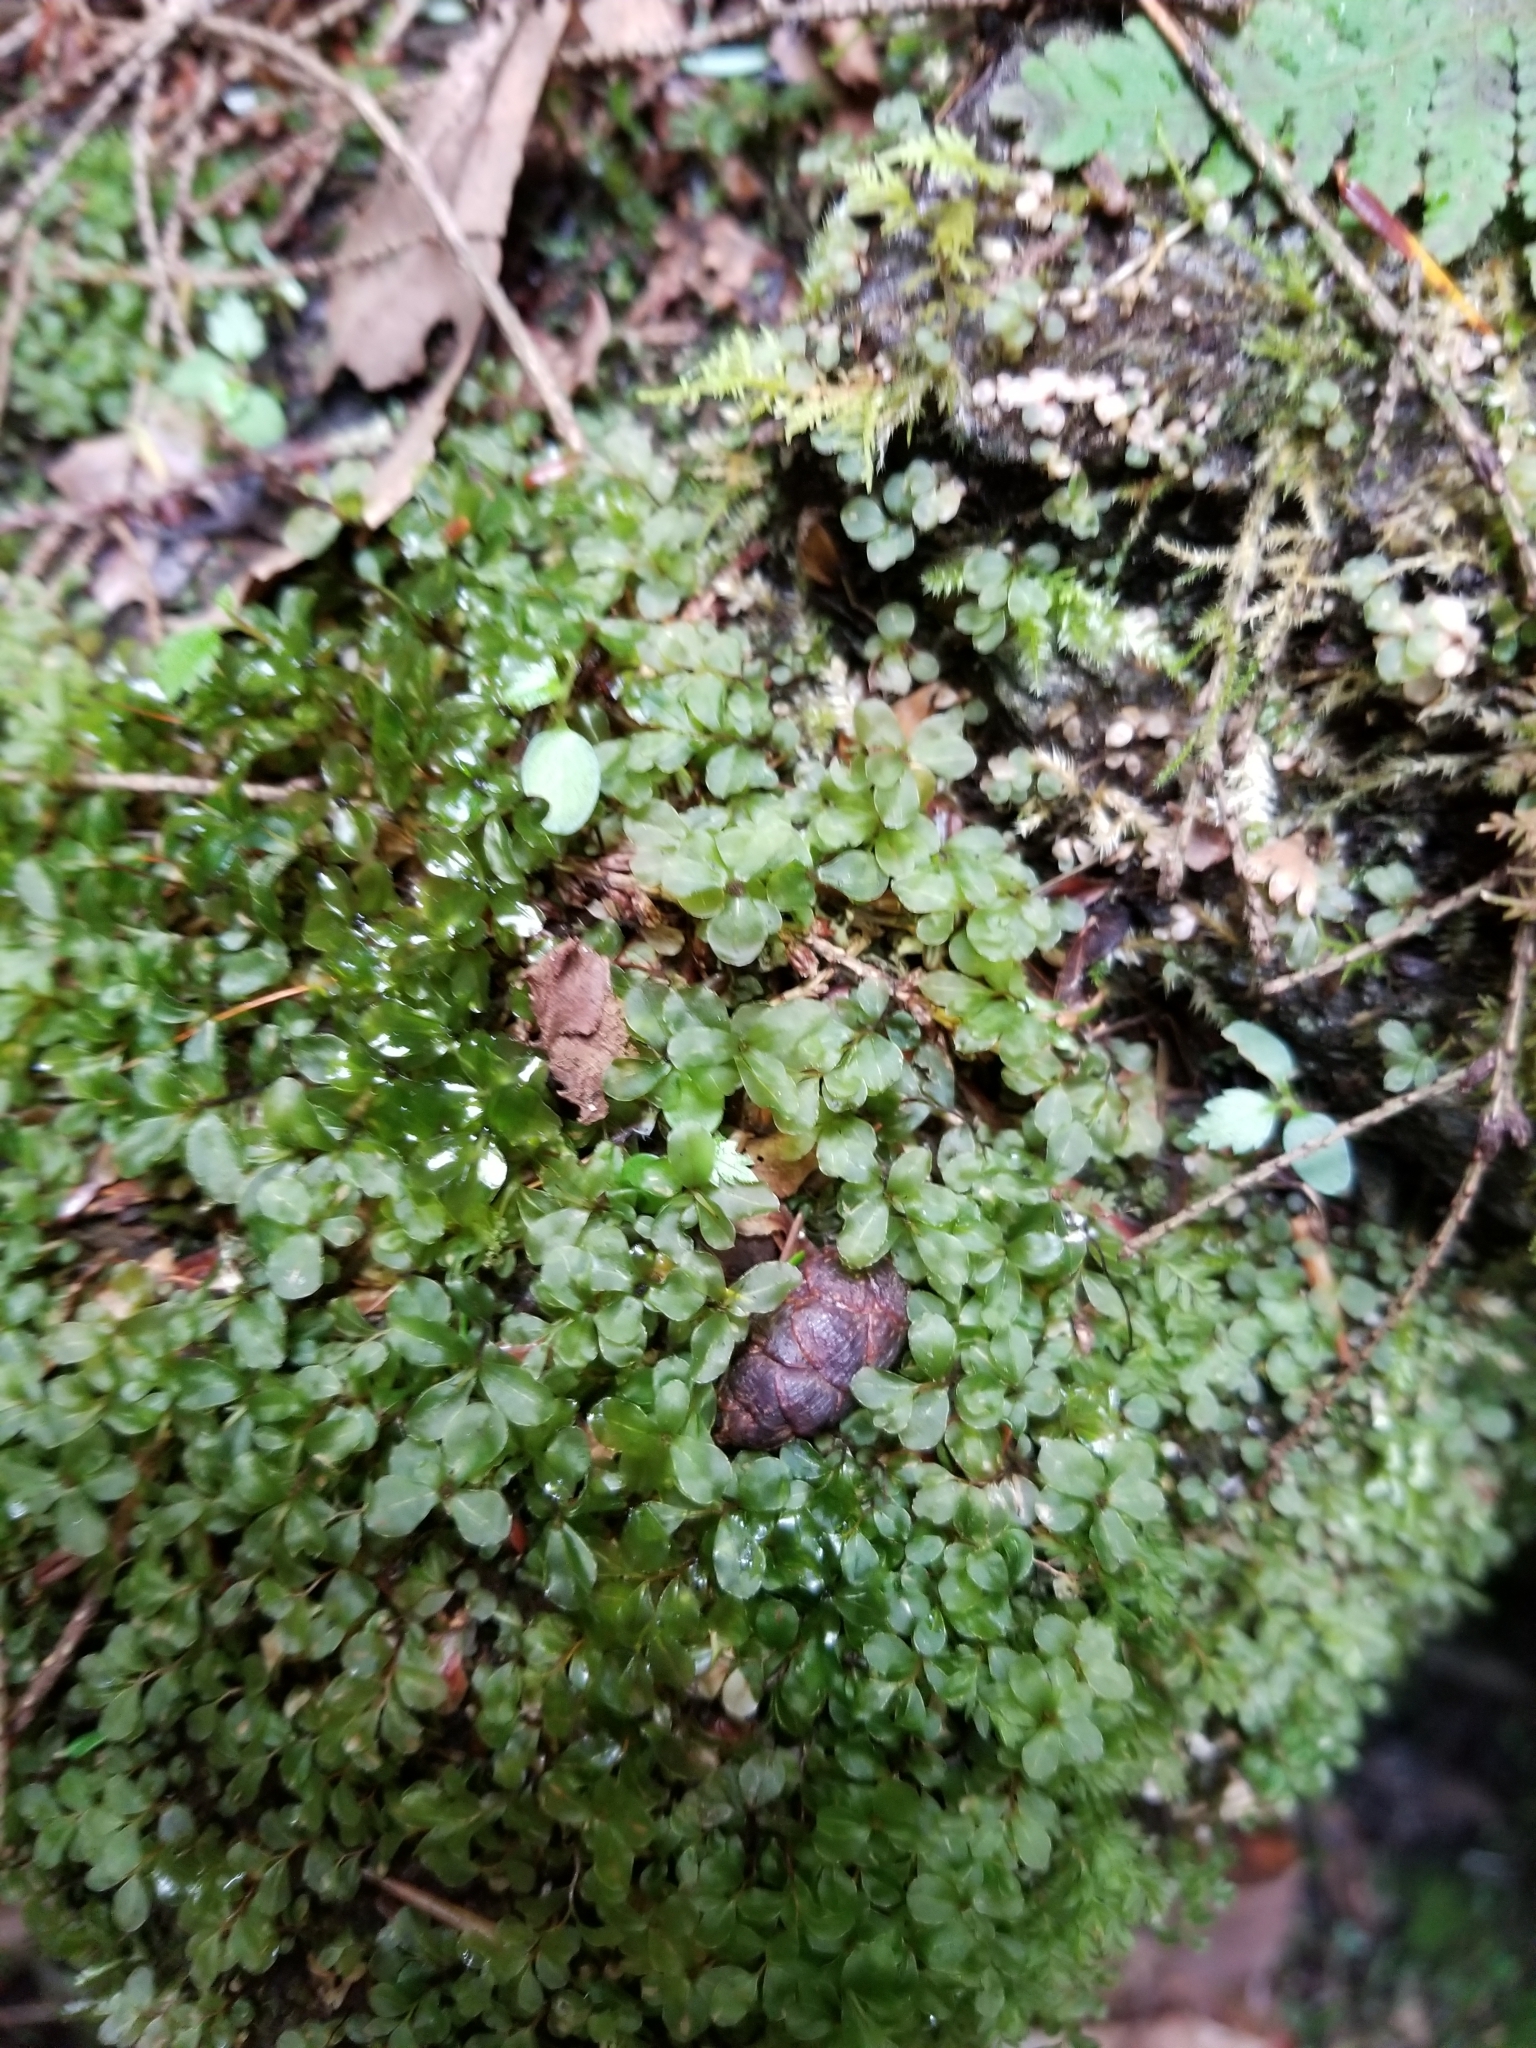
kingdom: Plantae
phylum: Bryophyta
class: Bryopsida
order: Bryales
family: Mniaceae
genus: Rhizomnium
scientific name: Rhizomnium punctatum
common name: Dotted leafy moss
